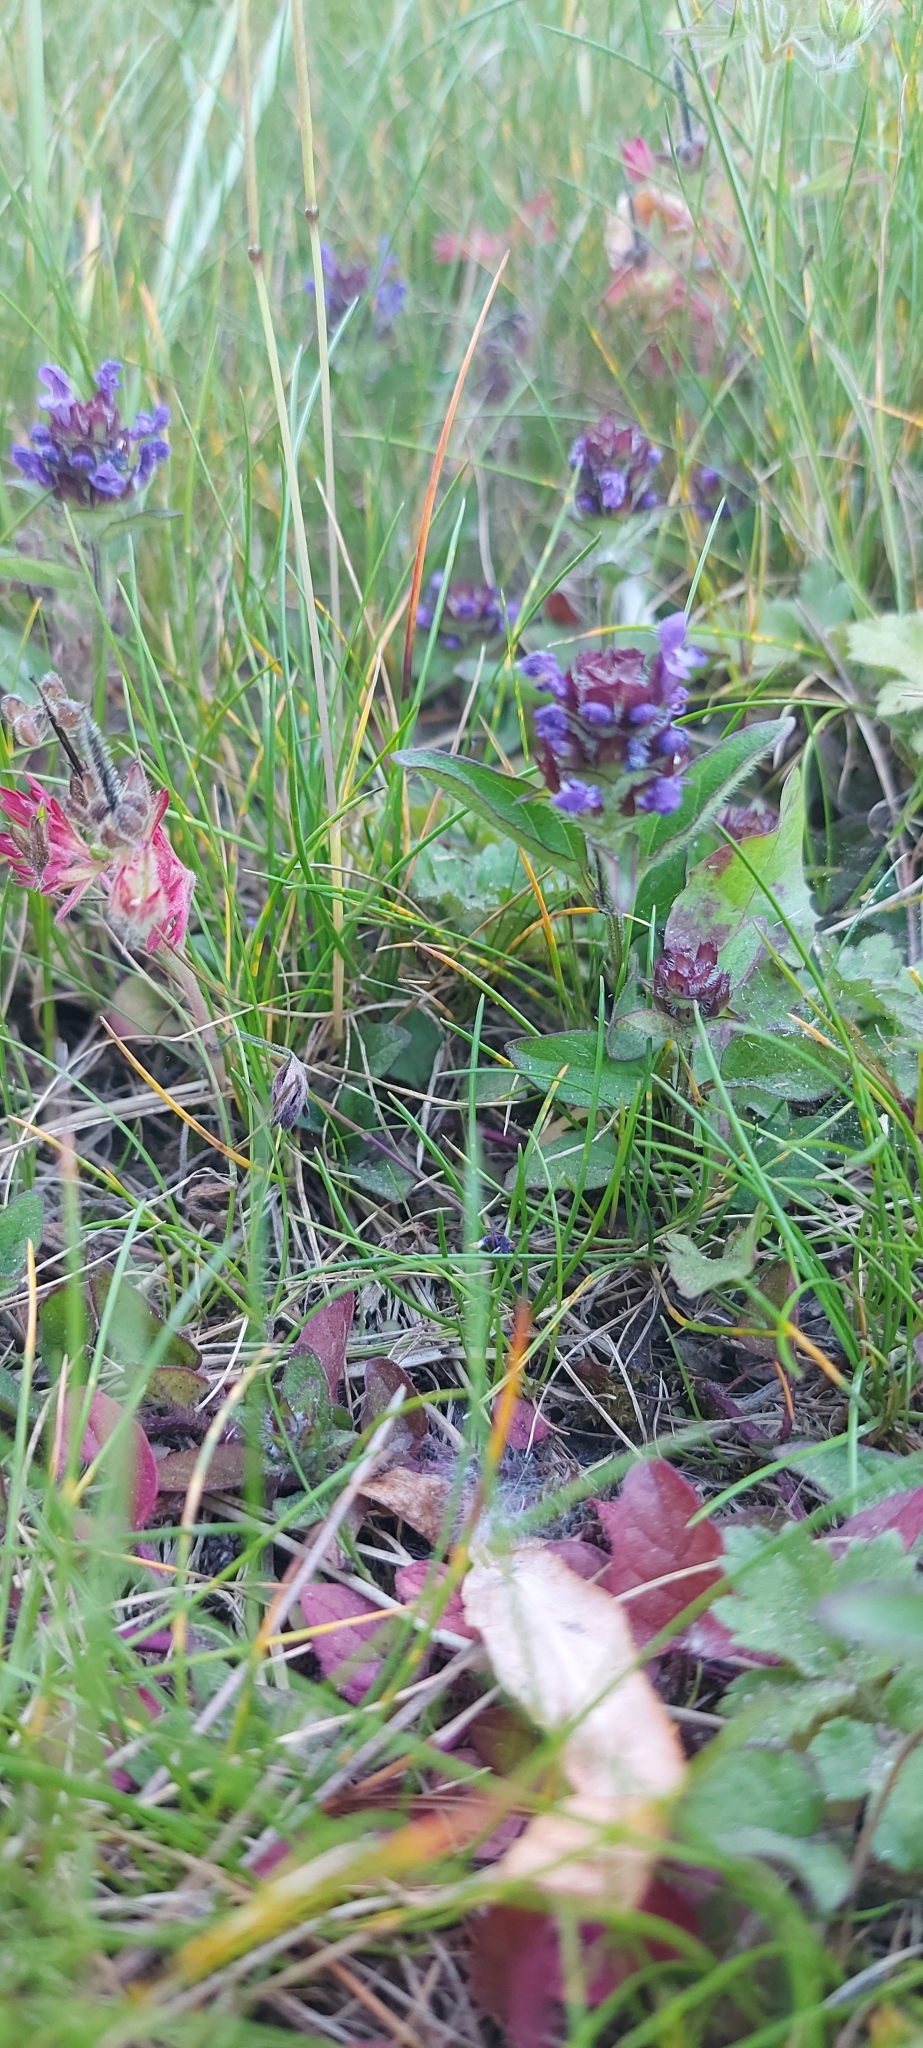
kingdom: Plantae
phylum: Tracheophyta
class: Magnoliopsida
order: Lamiales
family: Lamiaceae
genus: Prunella
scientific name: Prunella vulgaris
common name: Heal-all
